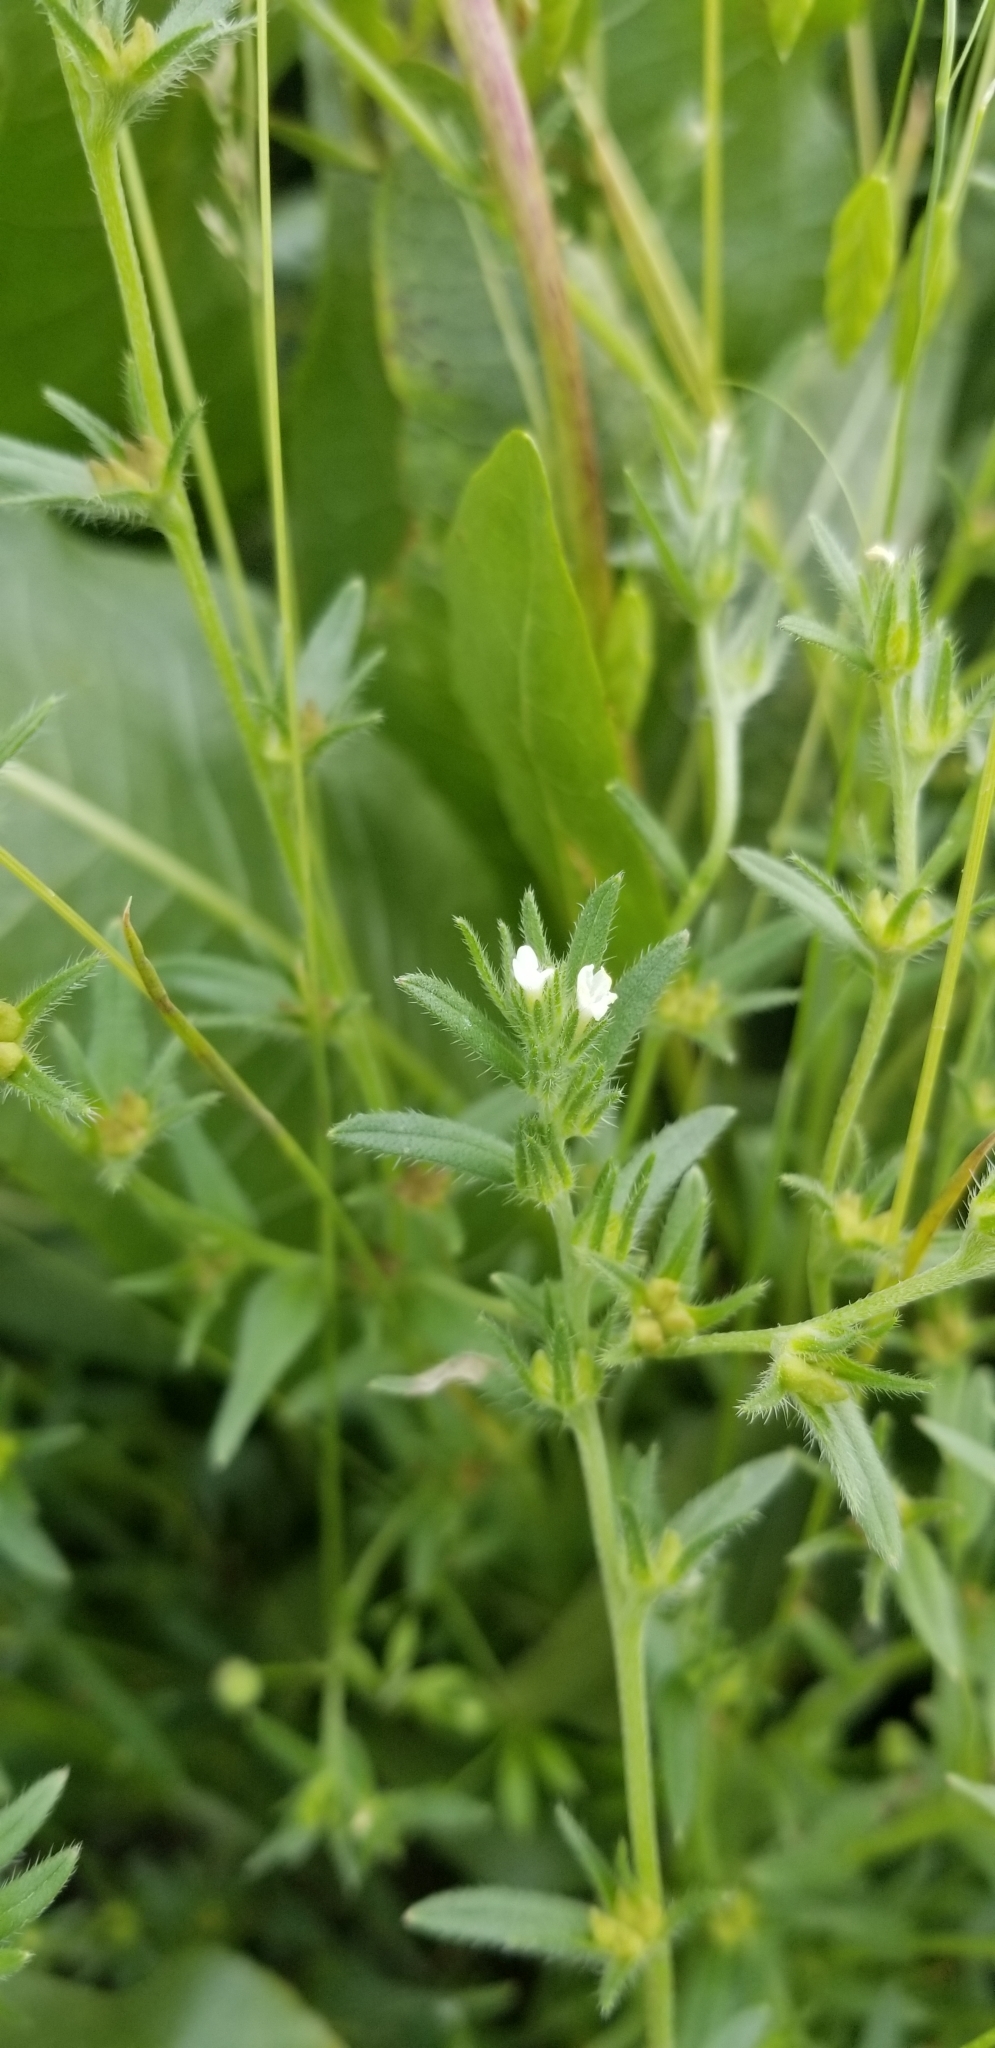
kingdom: Plantae
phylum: Tracheophyta
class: Magnoliopsida
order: Boraginales
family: Boraginaceae
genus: Buglossoides
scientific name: Buglossoides arvensis
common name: Corn gromwell
